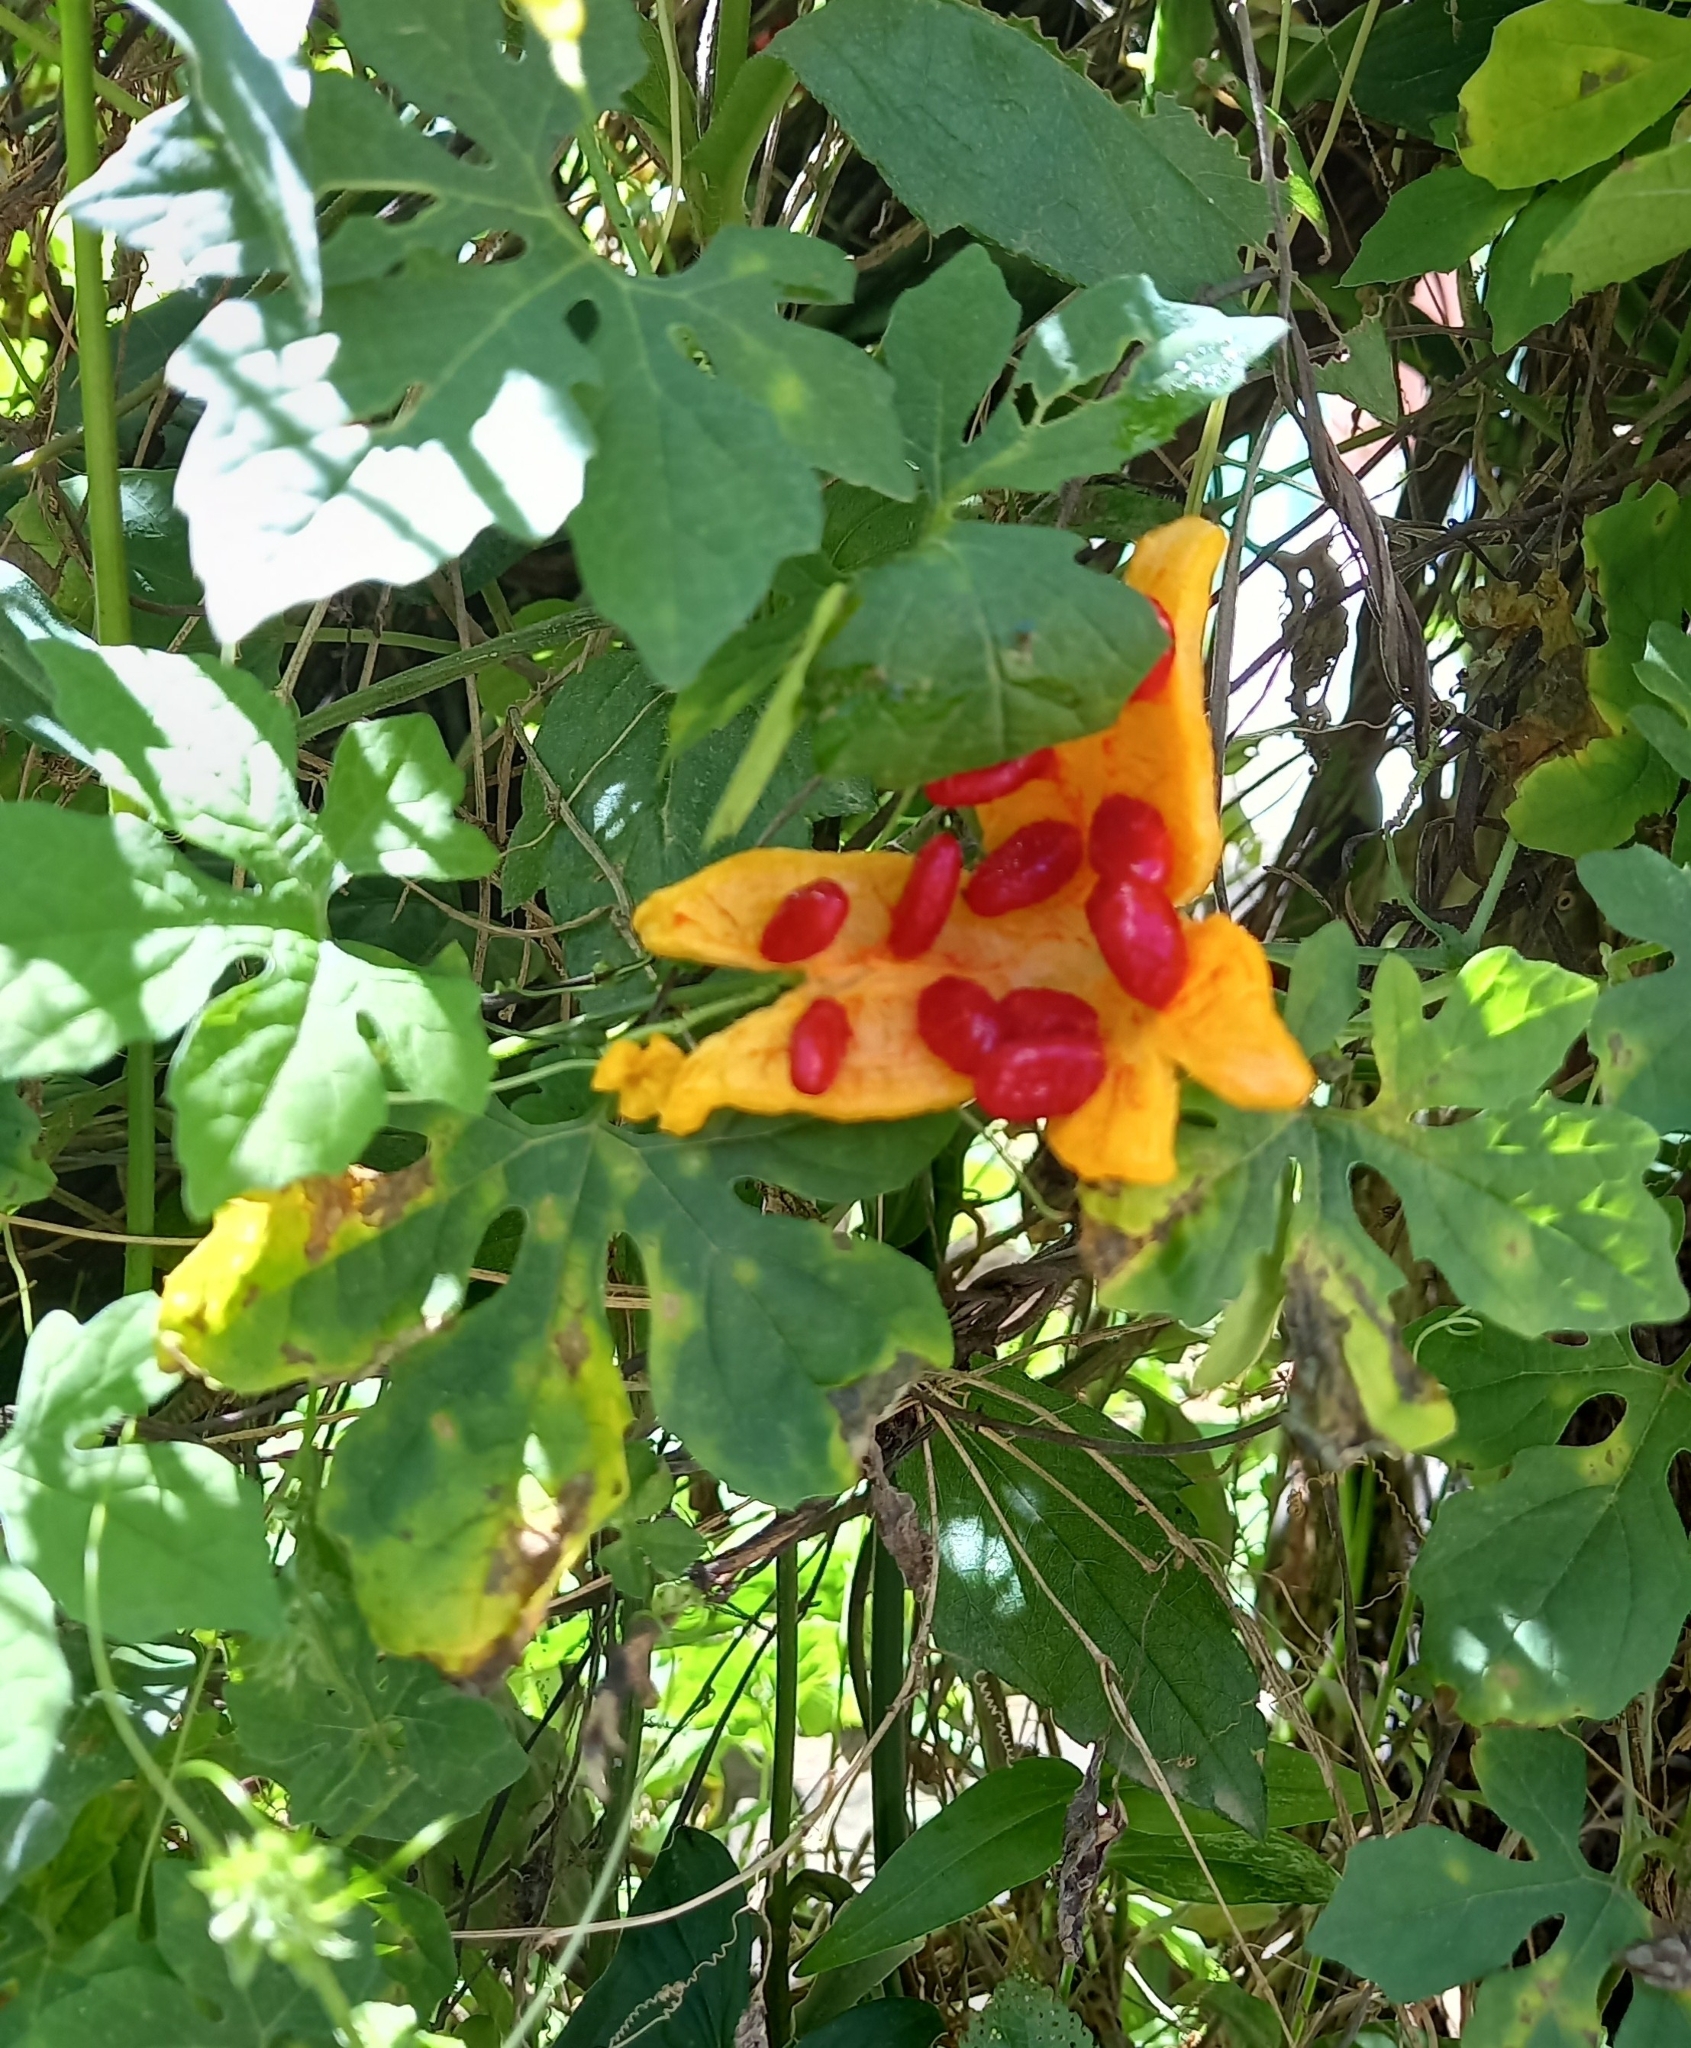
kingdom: Plantae
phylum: Tracheophyta
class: Magnoliopsida
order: Cucurbitales
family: Cucurbitaceae
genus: Momordica
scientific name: Momordica charantia
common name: Balsampear
